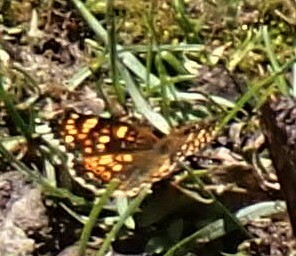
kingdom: Animalia
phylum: Arthropoda
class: Insecta
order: Lepidoptera
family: Nymphalidae
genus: Phyciodes
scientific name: Phyciodes tharos
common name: Pearl crescent
